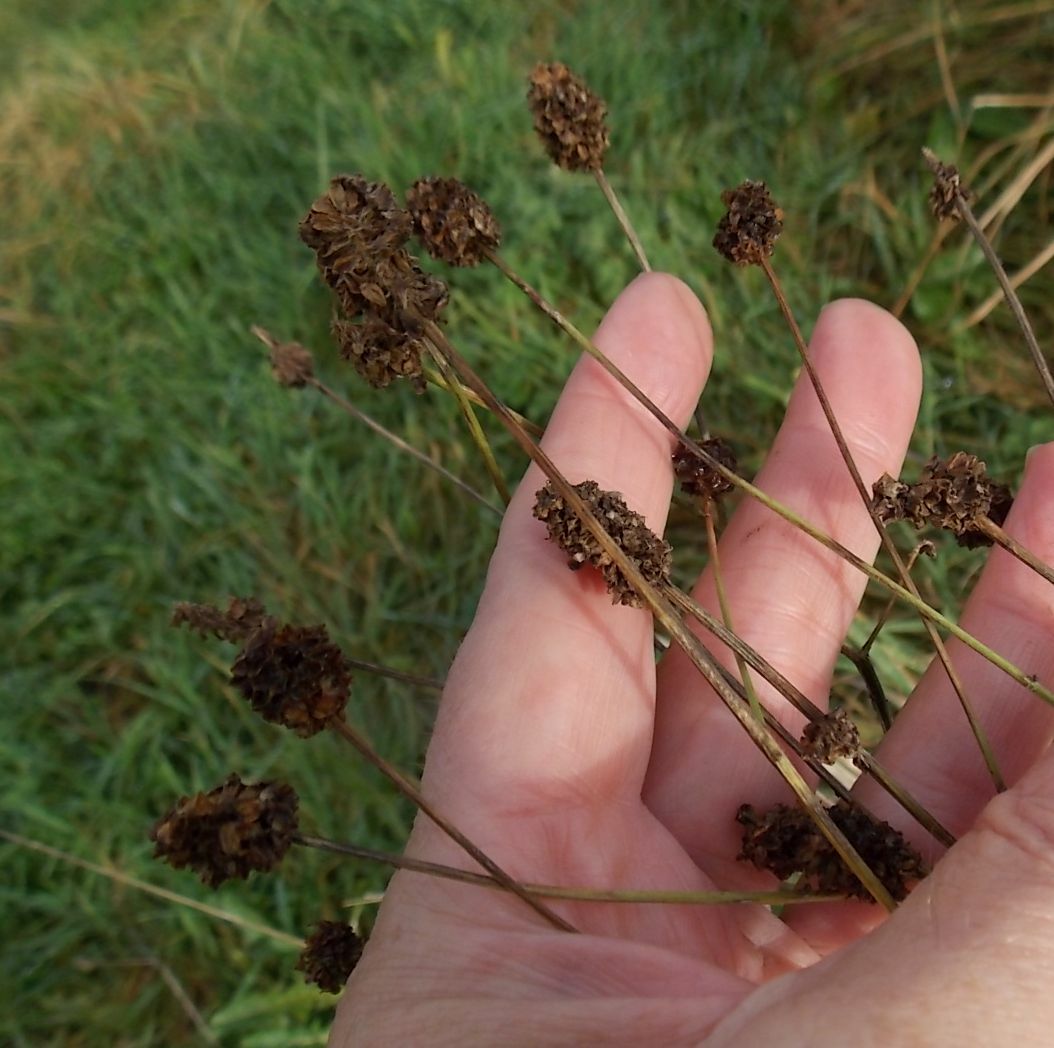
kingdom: Plantae
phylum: Tracheophyta
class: Magnoliopsida
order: Rosales
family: Rosaceae
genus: Sanguisorba
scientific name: Sanguisorba officinalis
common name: Great burnet
